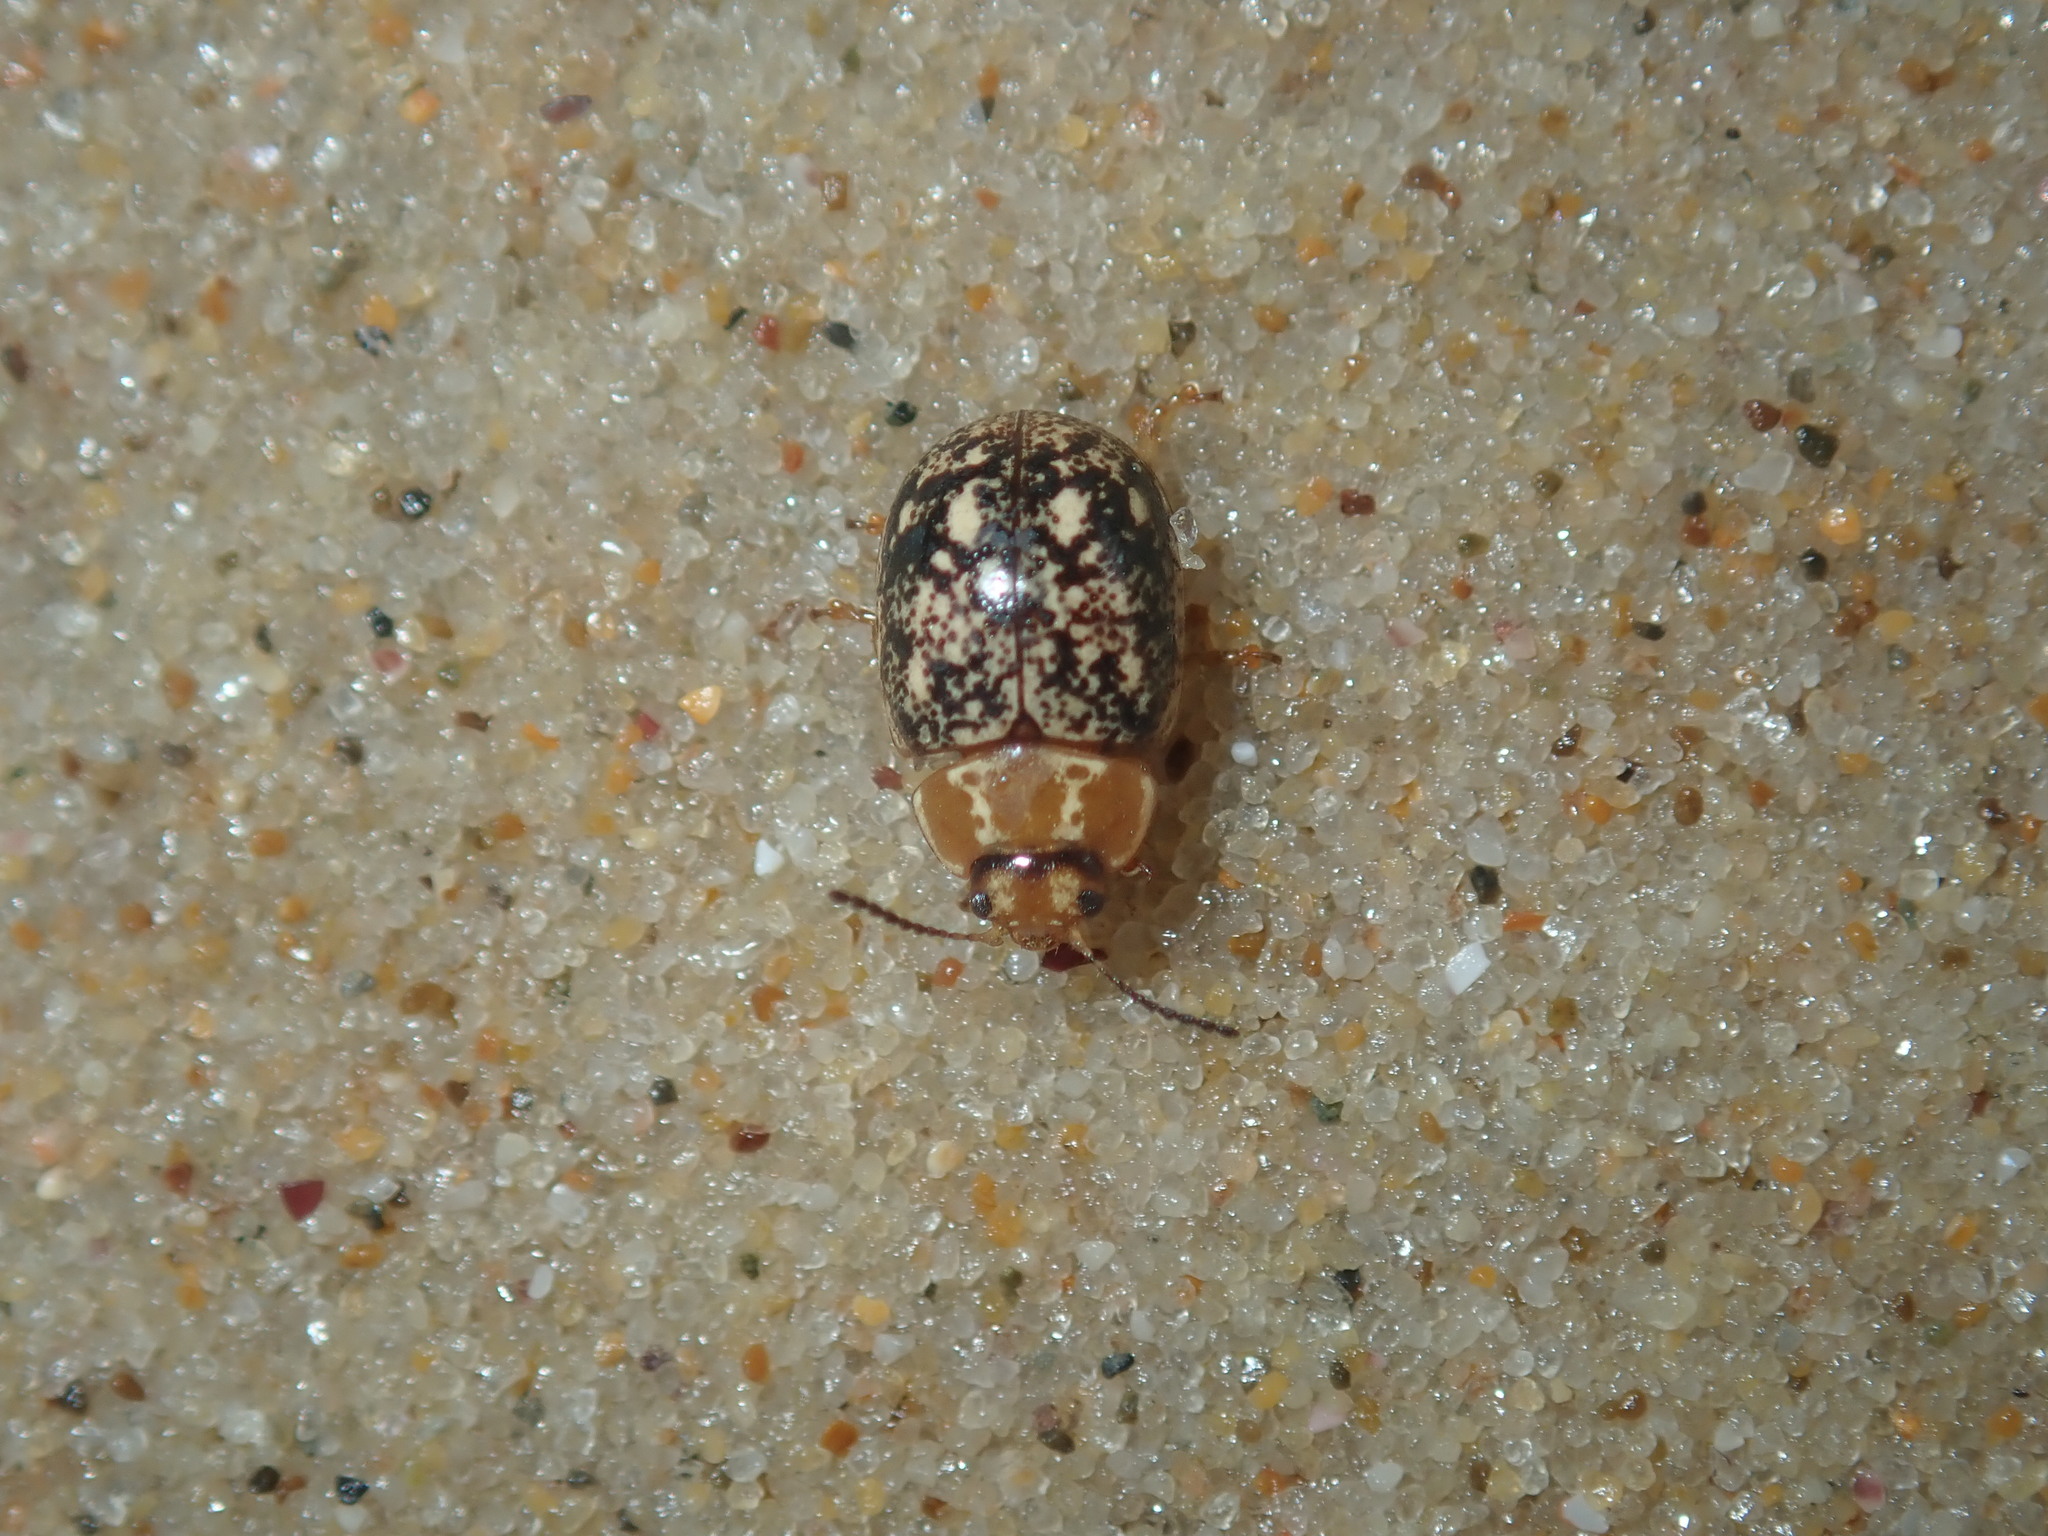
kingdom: Animalia
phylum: Arthropoda
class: Insecta
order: Coleoptera
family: Chrysomelidae
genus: Paropsisterna
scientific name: Paropsisterna
